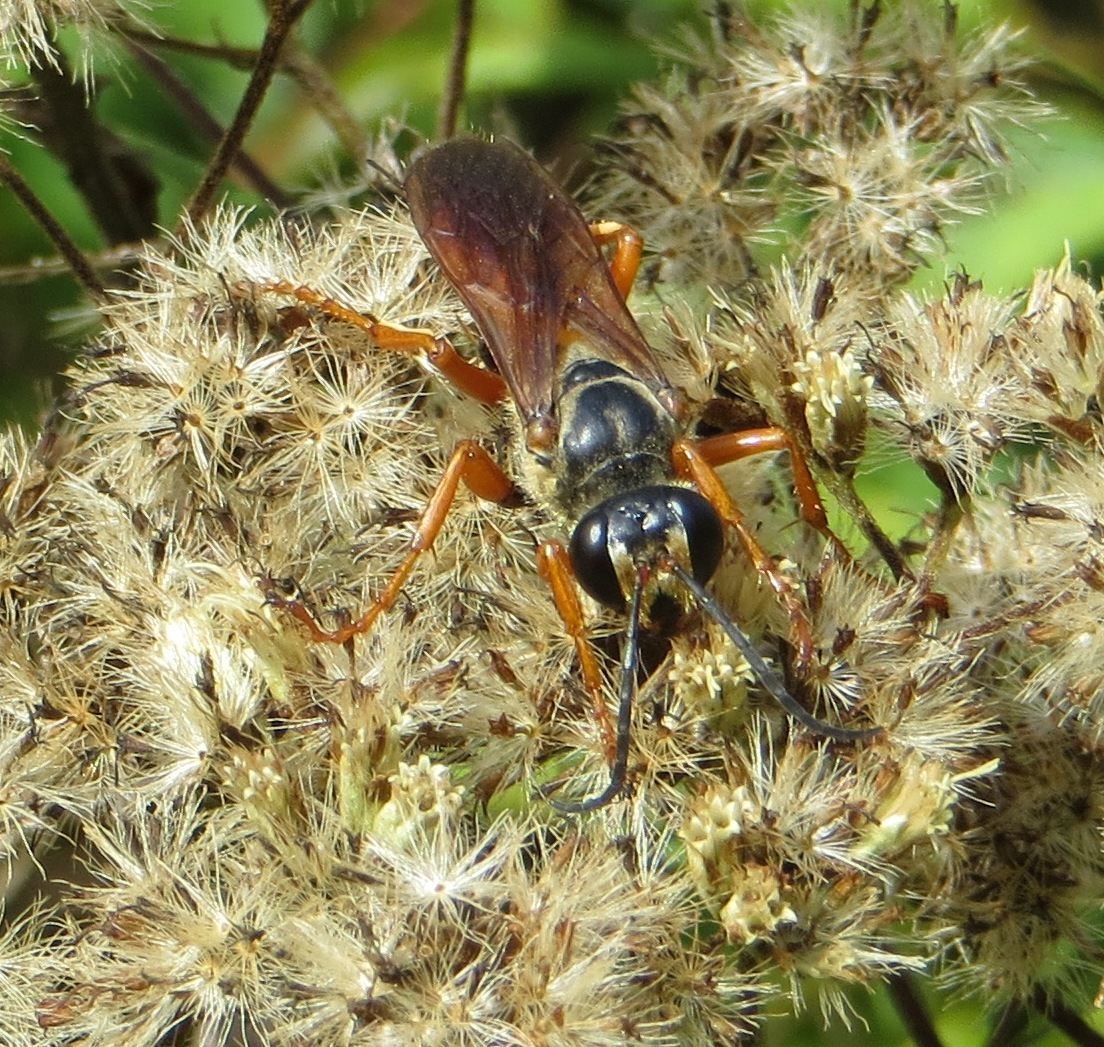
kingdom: Animalia
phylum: Arthropoda
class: Insecta
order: Hymenoptera
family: Sphecidae
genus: Sphex
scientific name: Sphex ichneumoneus
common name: Great golden digger wasp
